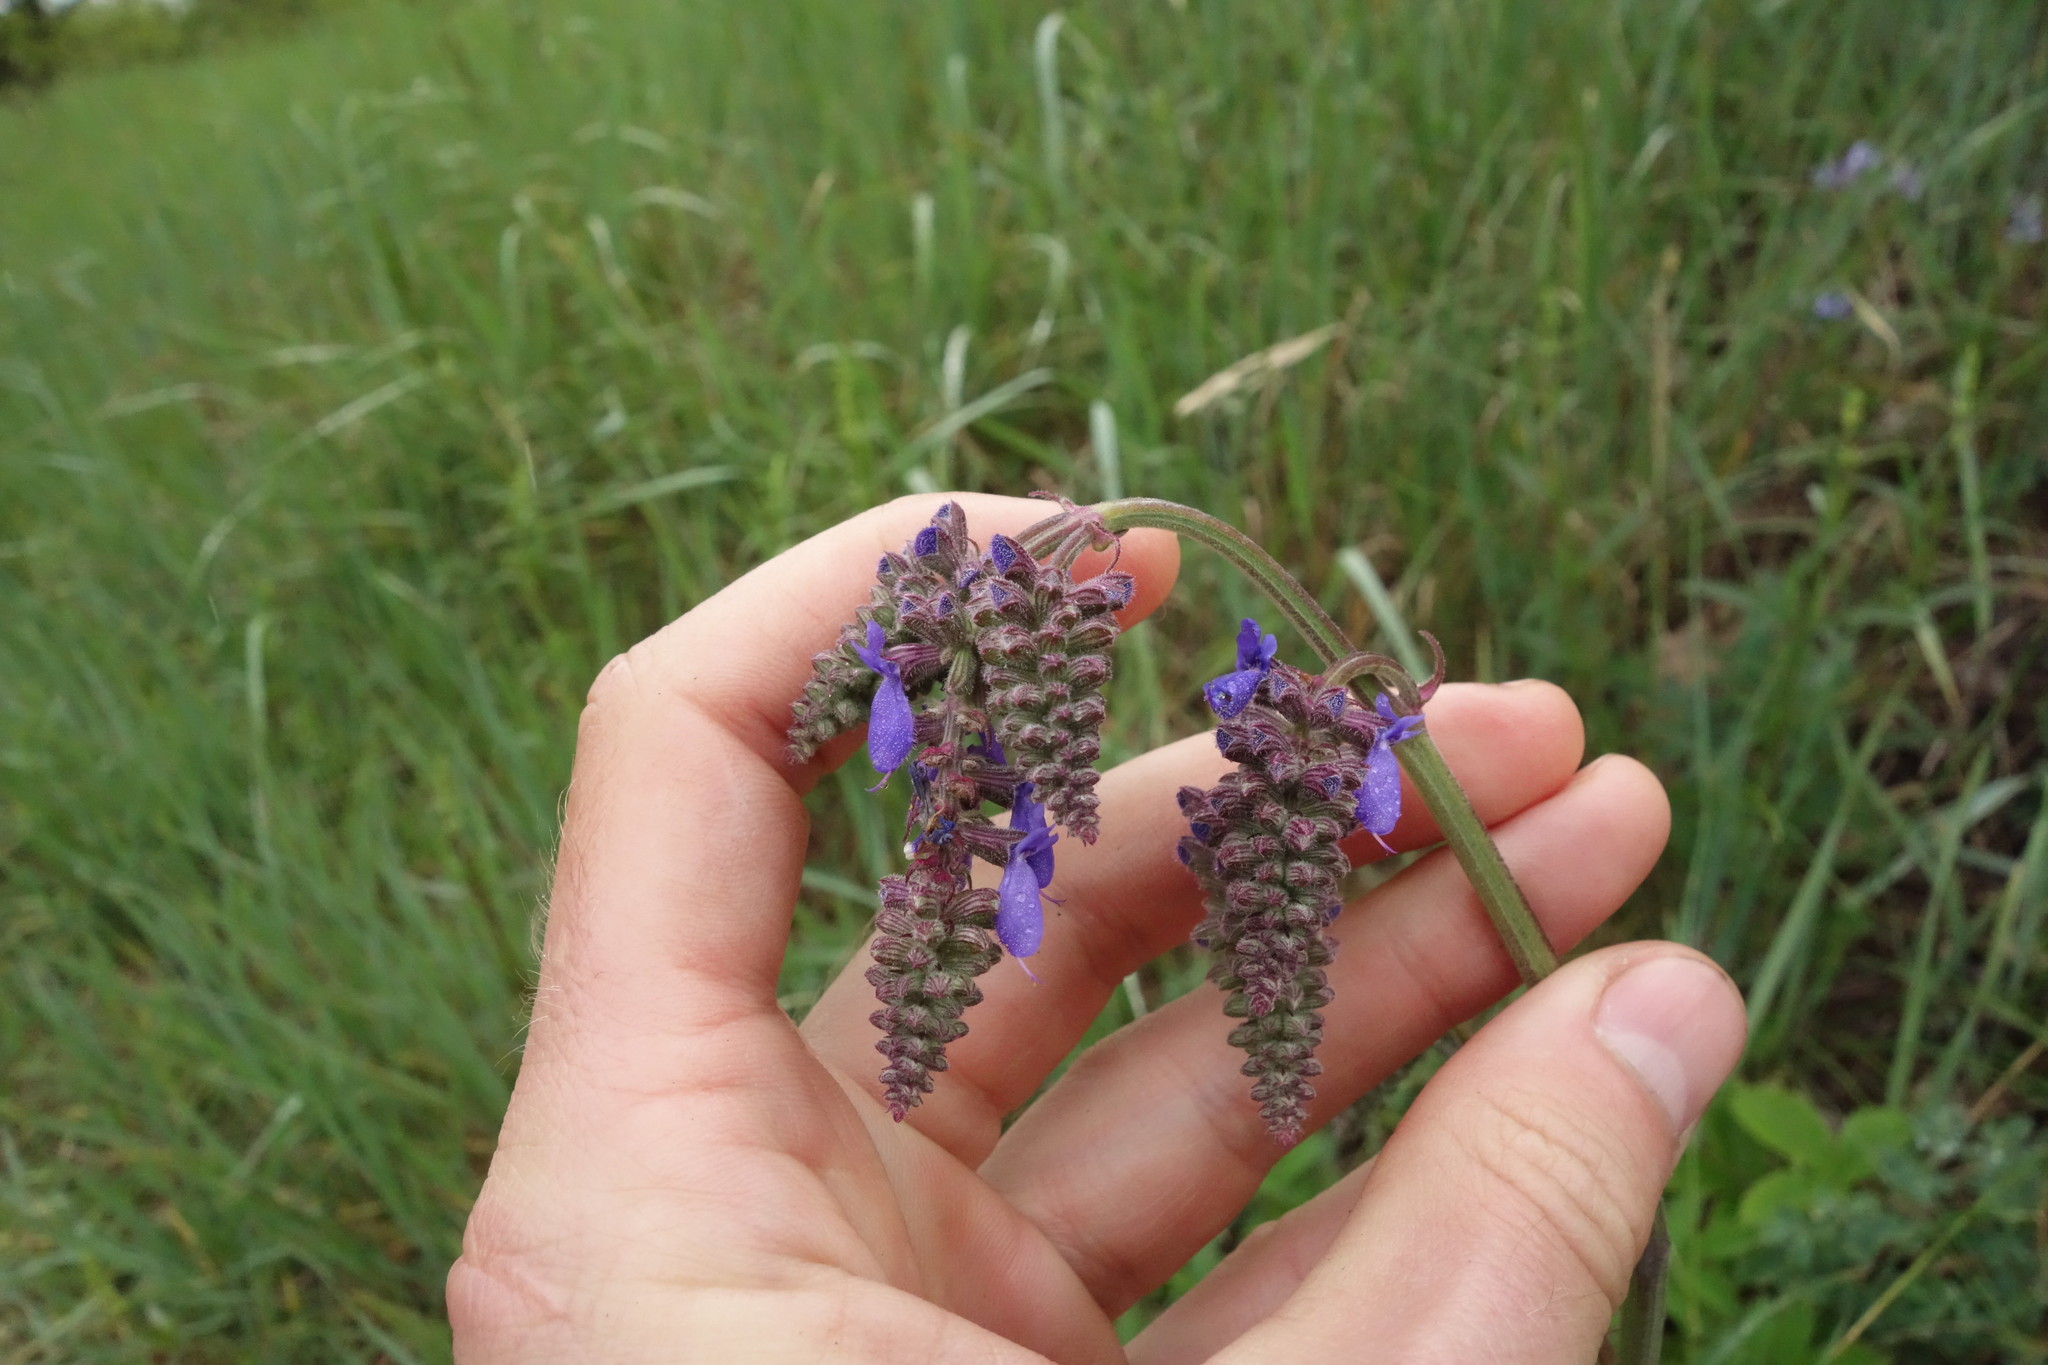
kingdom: Plantae
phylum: Tracheophyta
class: Magnoliopsida
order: Lamiales
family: Lamiaceae
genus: Salvia
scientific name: Salvia nutans
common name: Nodding sage
